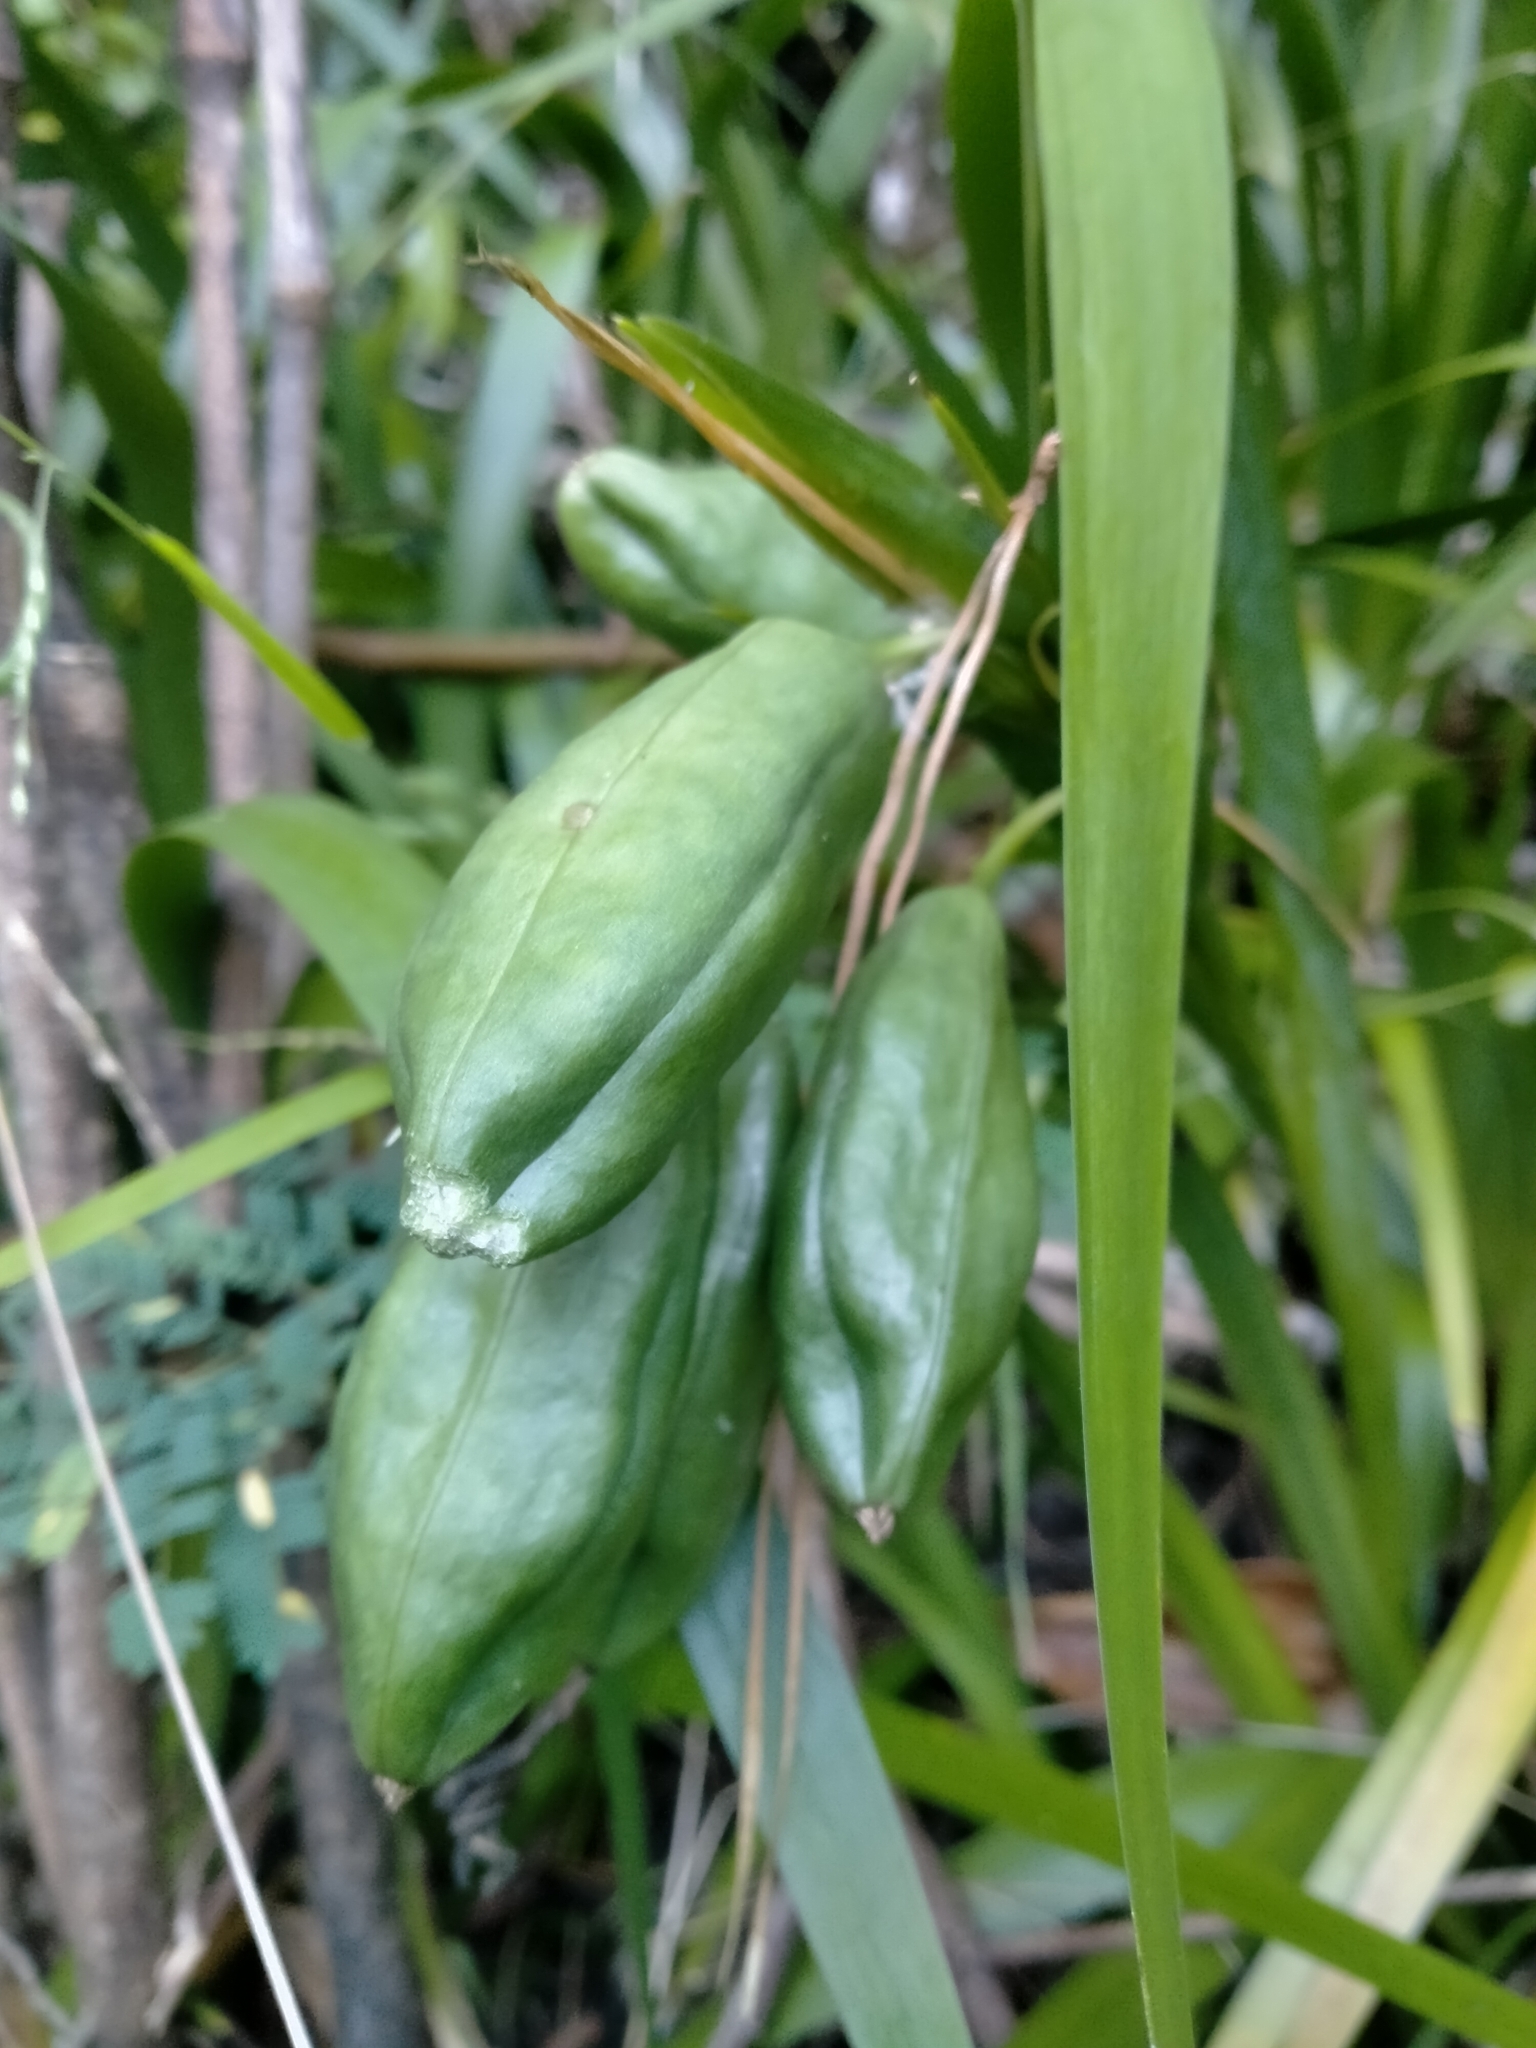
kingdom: Plantae
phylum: Tracheophyta
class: Liliopsida
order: Asparagales
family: Iridaceae
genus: Iris
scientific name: Iris foetidissima
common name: Stinking iris
